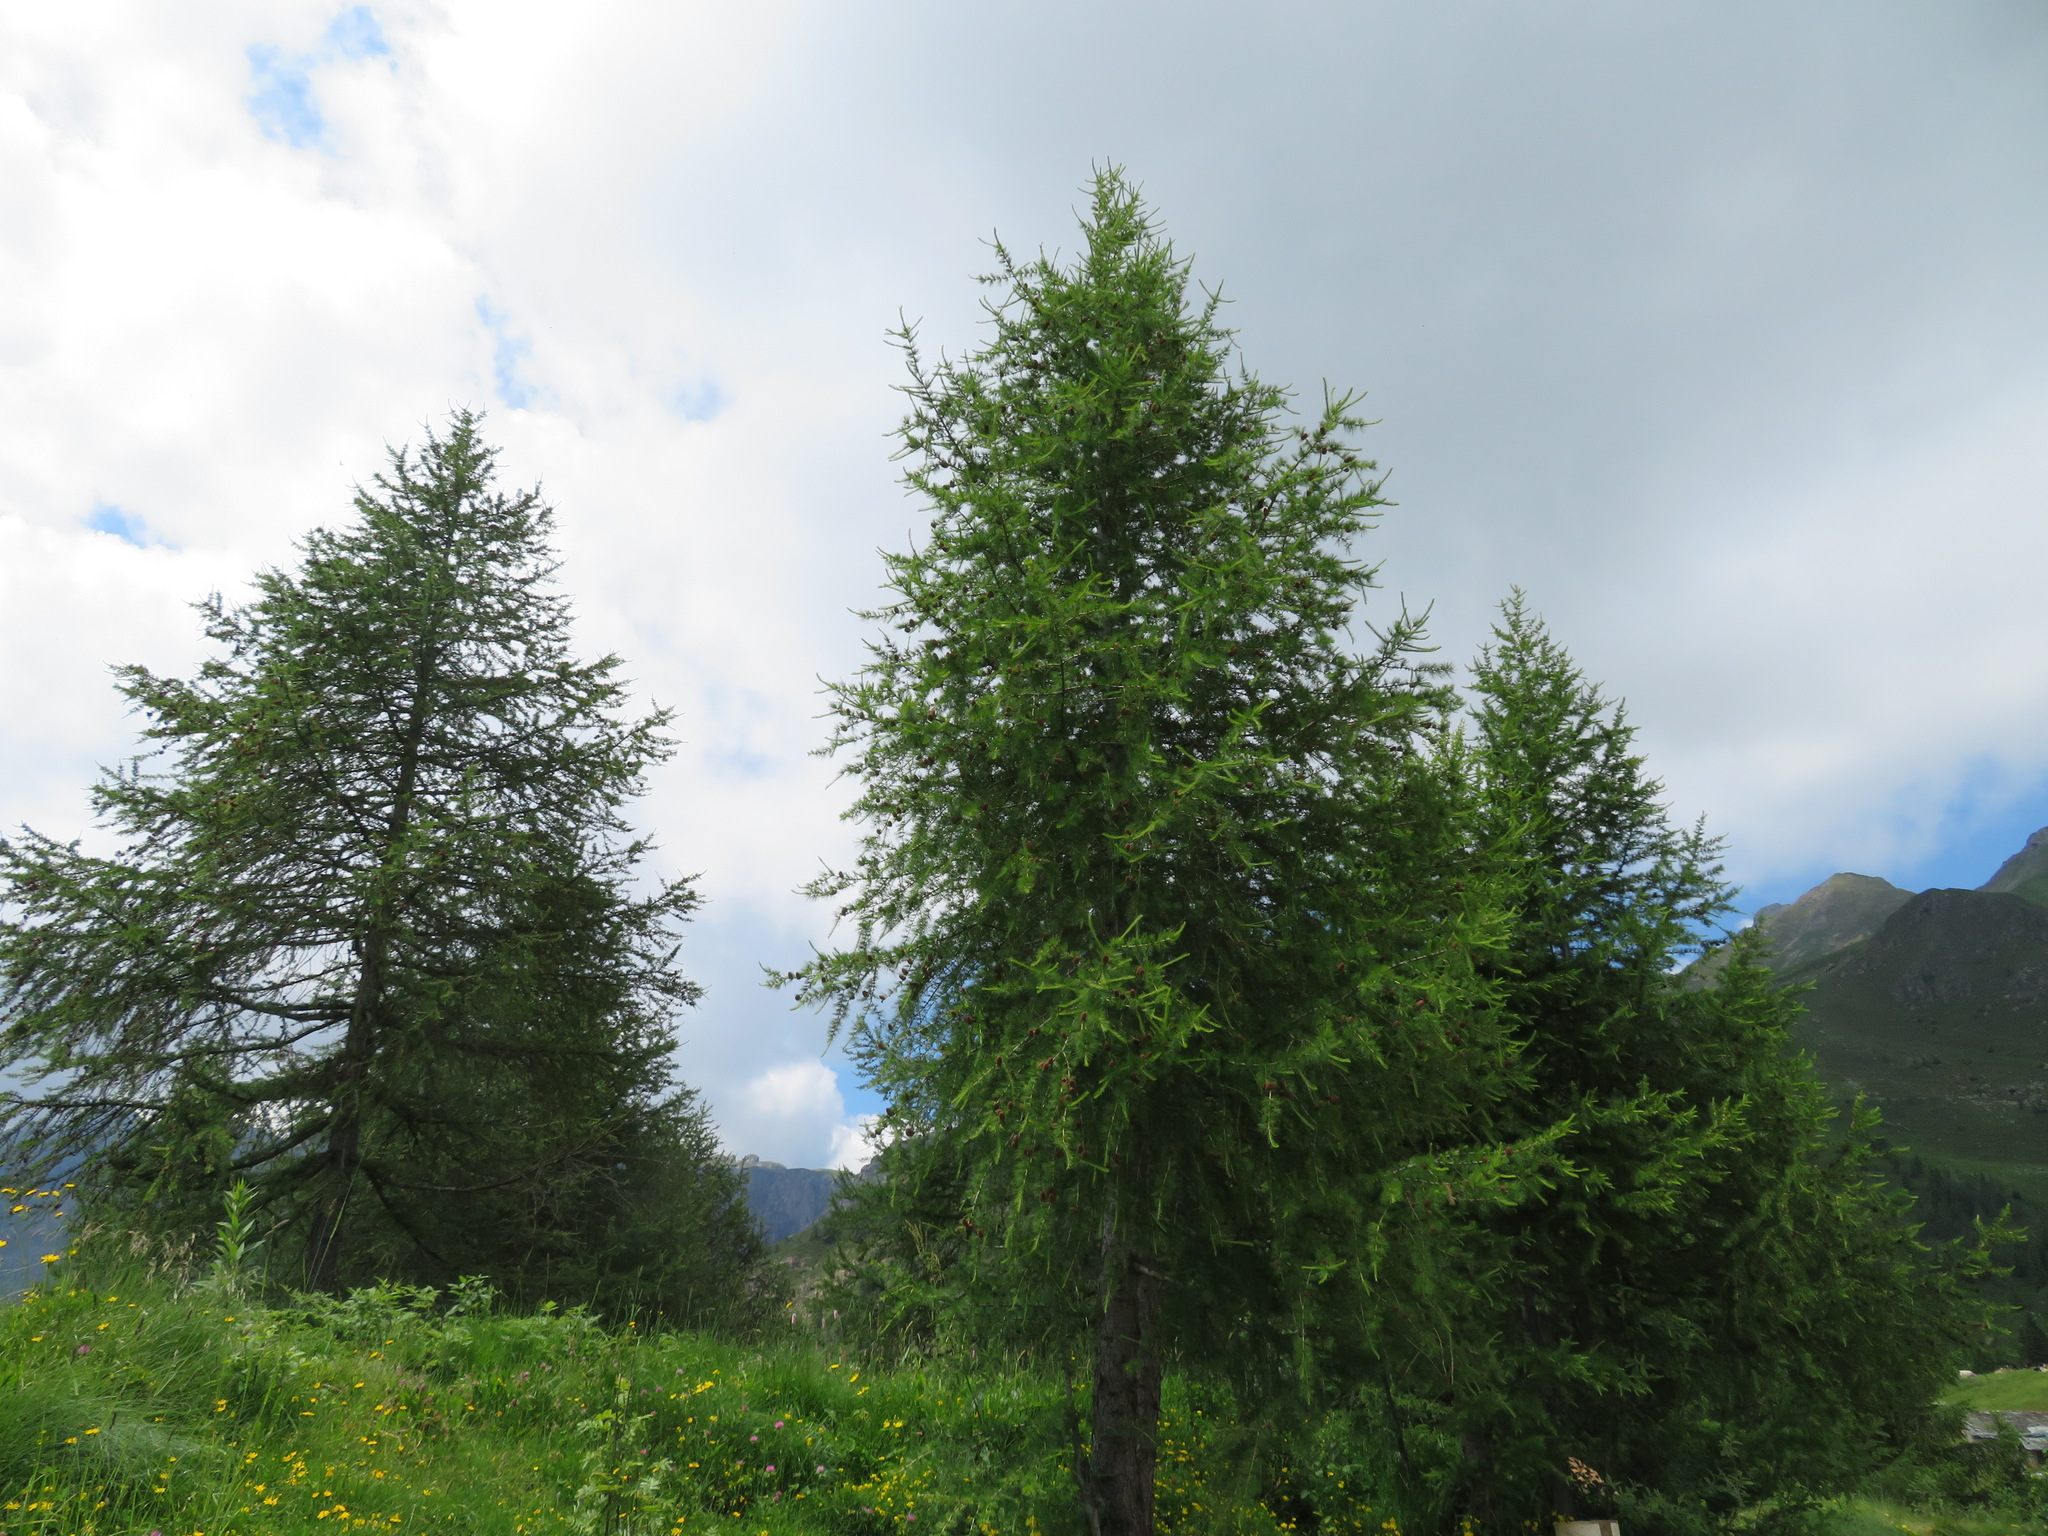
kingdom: Plantae
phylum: Tracheophyta
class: Pinopsida
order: Pinales
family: Pinaceae
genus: Larix
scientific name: Larix decidua
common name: European larch
